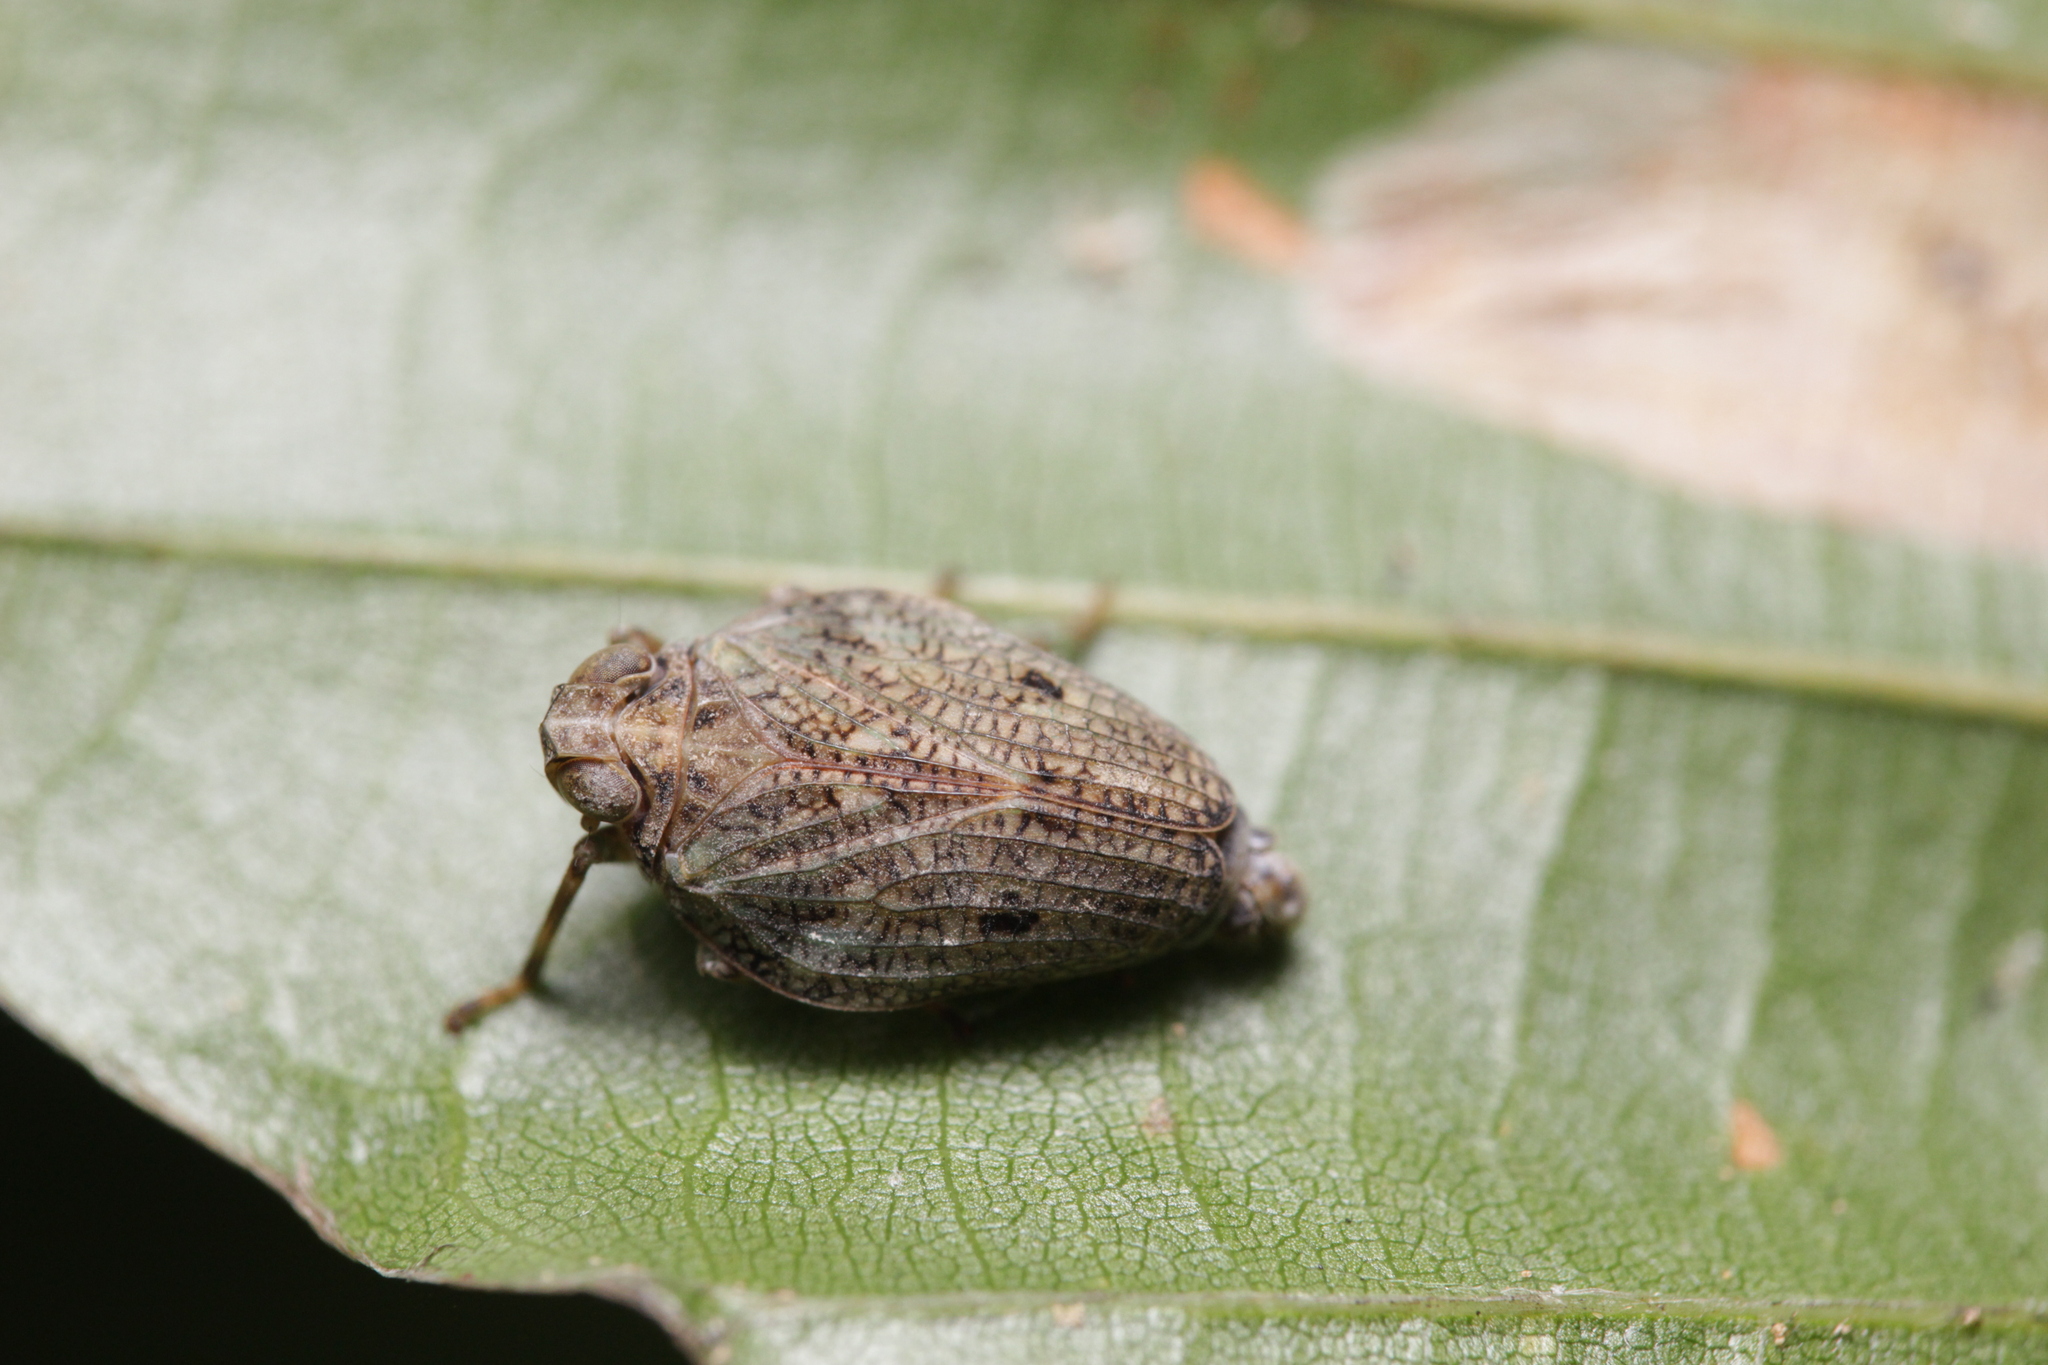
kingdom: Animalia
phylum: Arthropoda
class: Insecta
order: Hemiptera
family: Issidae
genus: Issus
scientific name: Issus coleoptratus
